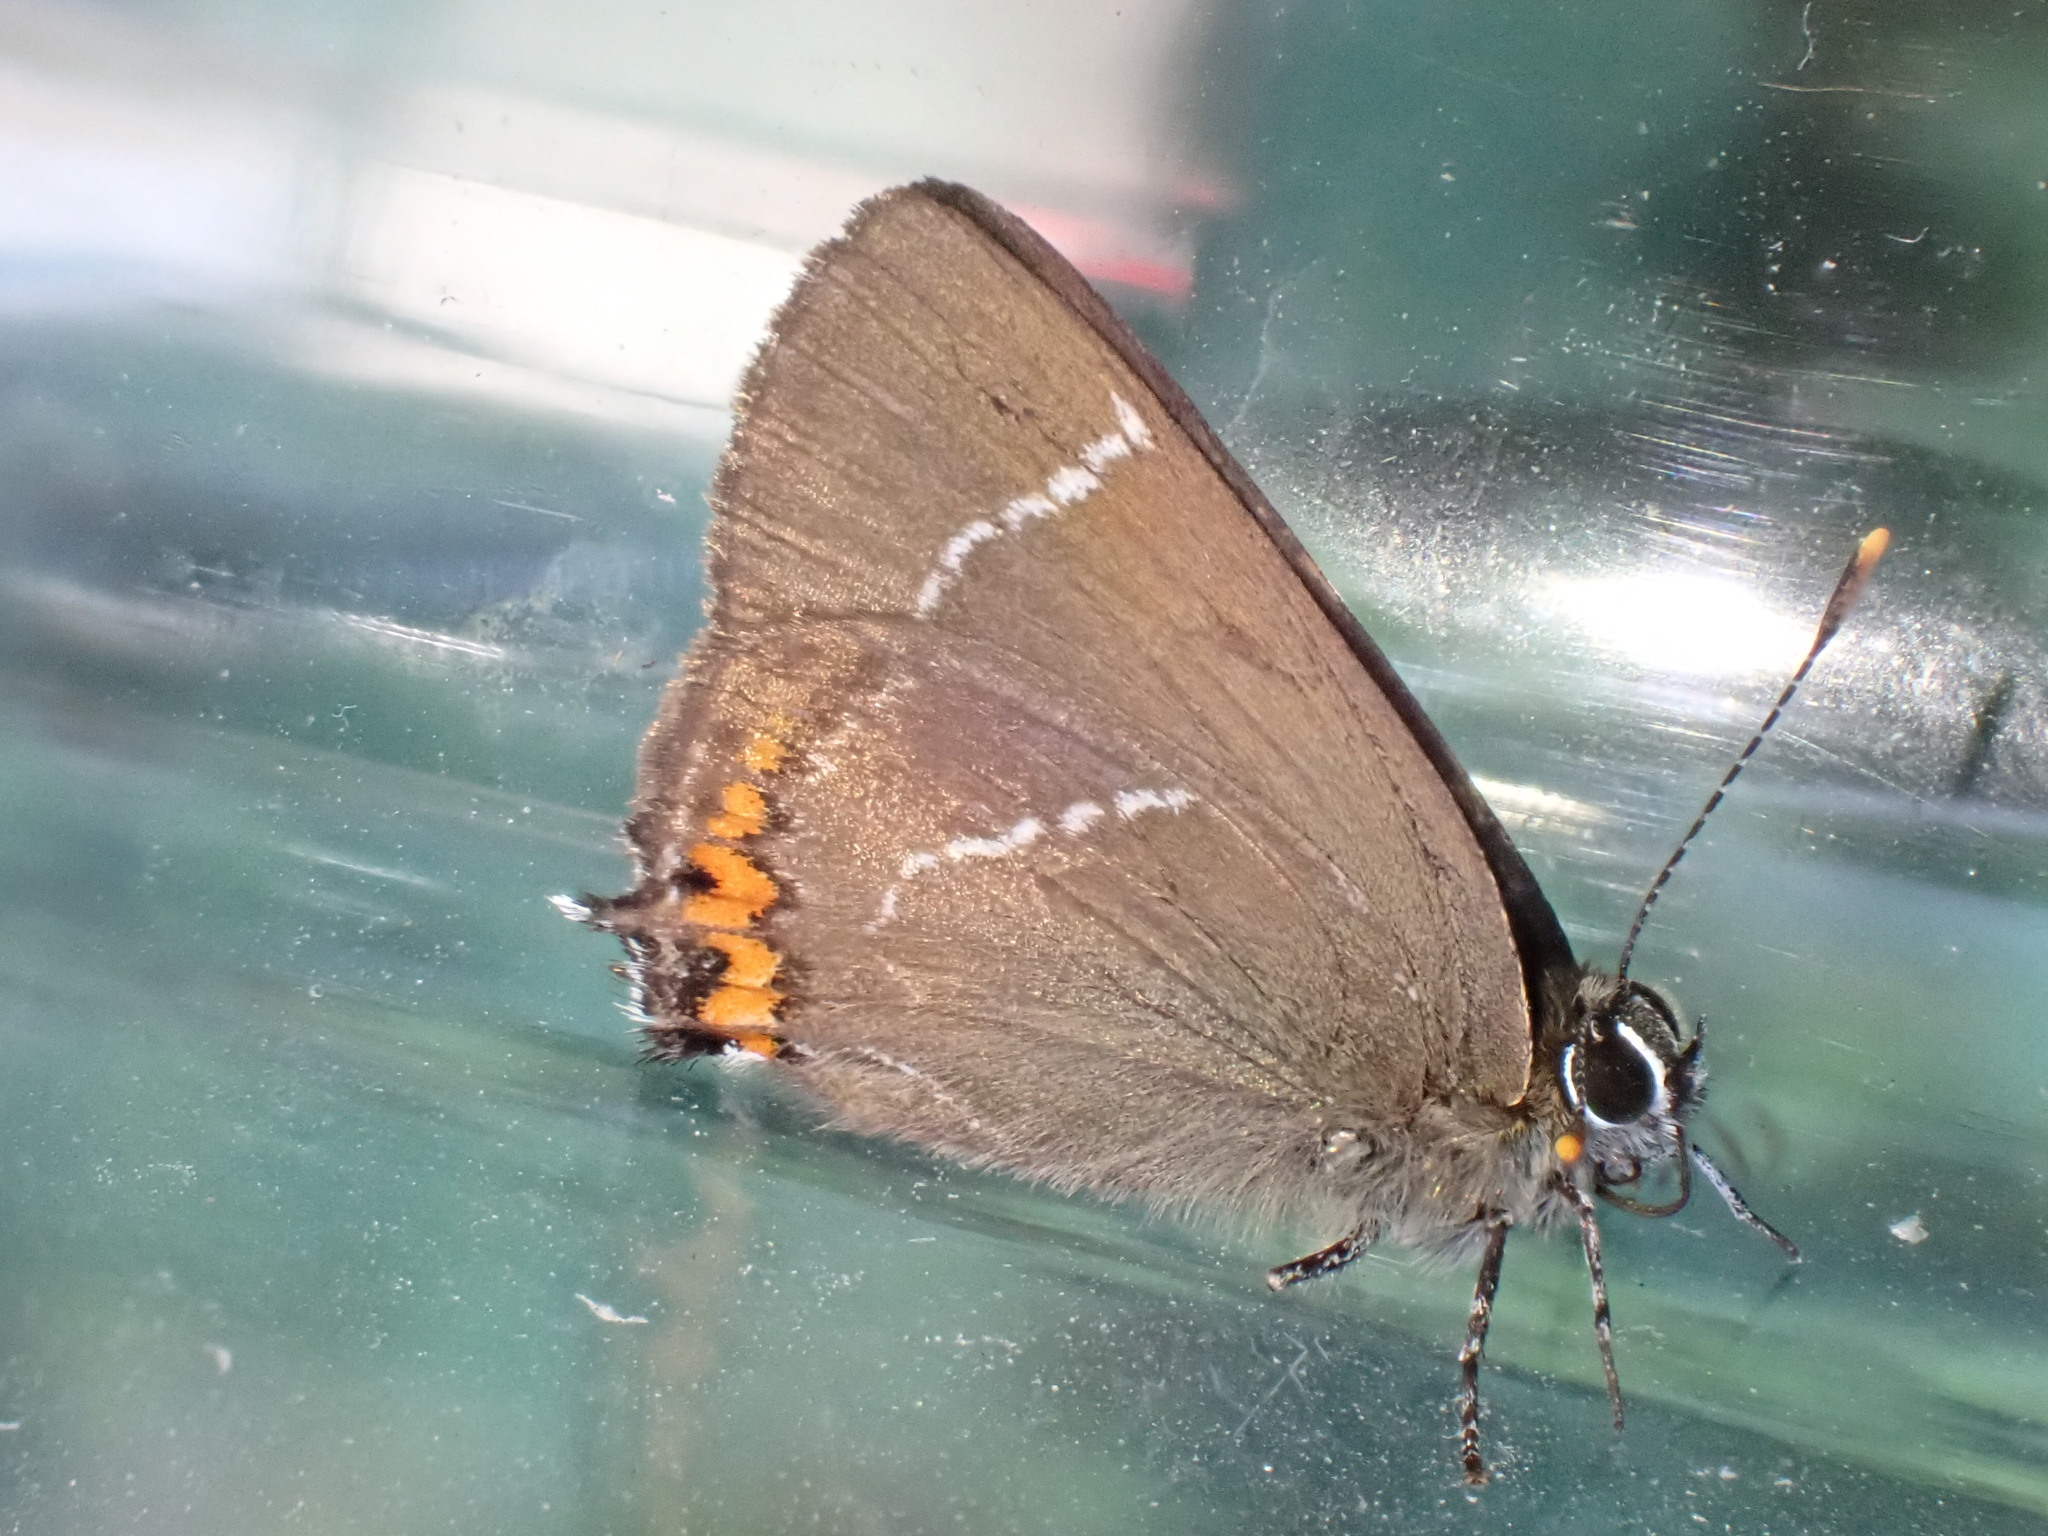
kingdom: Animalia
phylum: Arthropoda
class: Insecta
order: Lepidoptera
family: Lycaenidae
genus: Satyrium
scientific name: Satyrium w-album
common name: White-letter hairstreak
